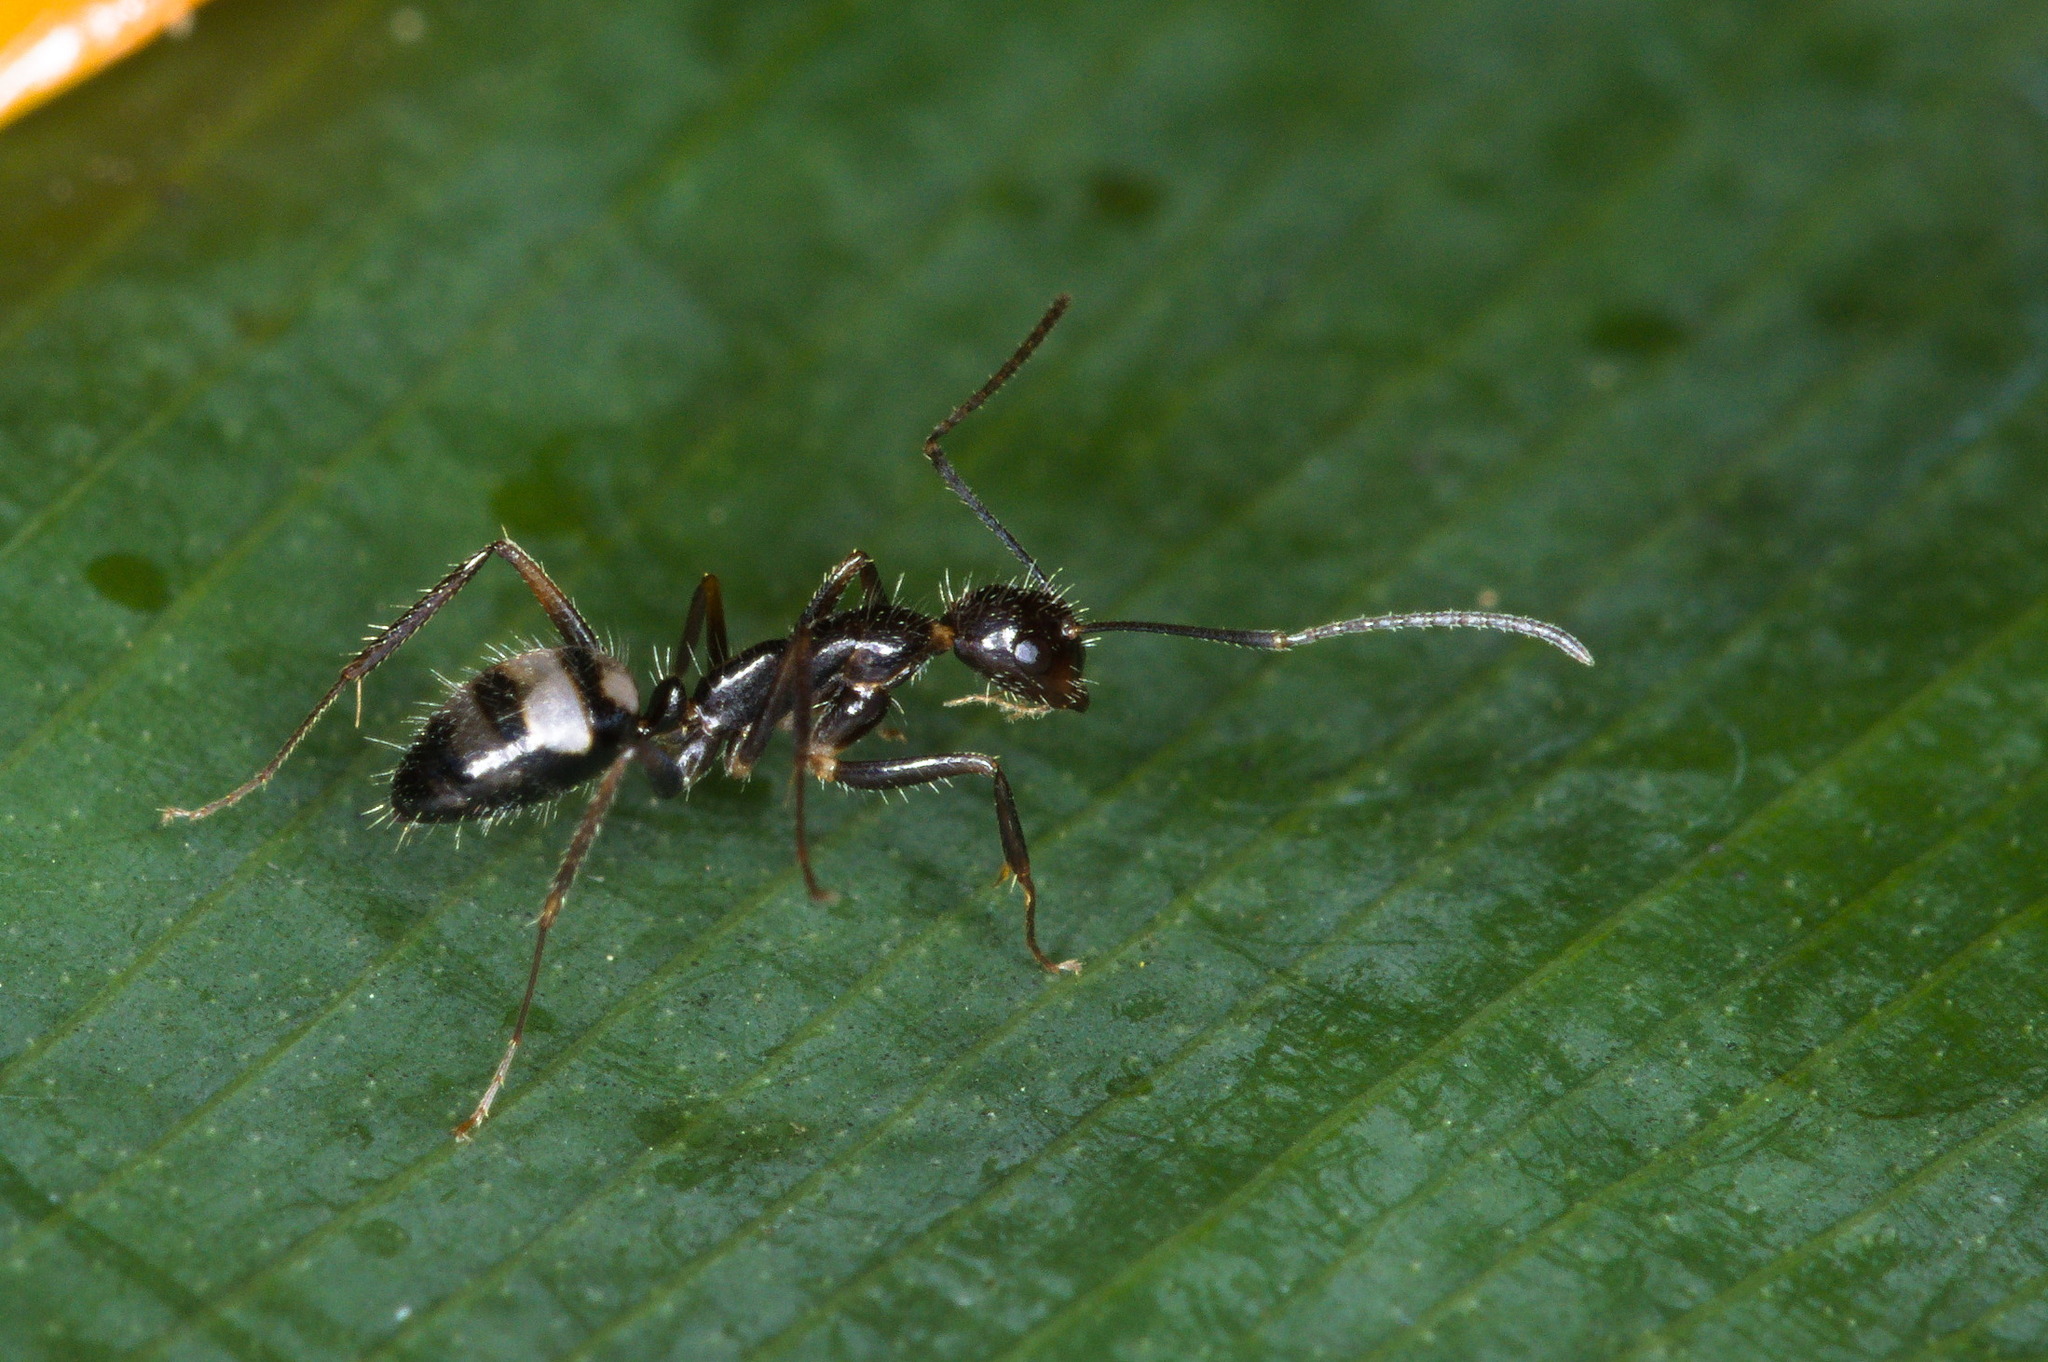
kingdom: Animalia
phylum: Arthropoda
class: Insecta
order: Hymenoptera
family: Formicidae
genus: Camponotus
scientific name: Camponotus sexguttatus
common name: Neotropical carpenter ant
